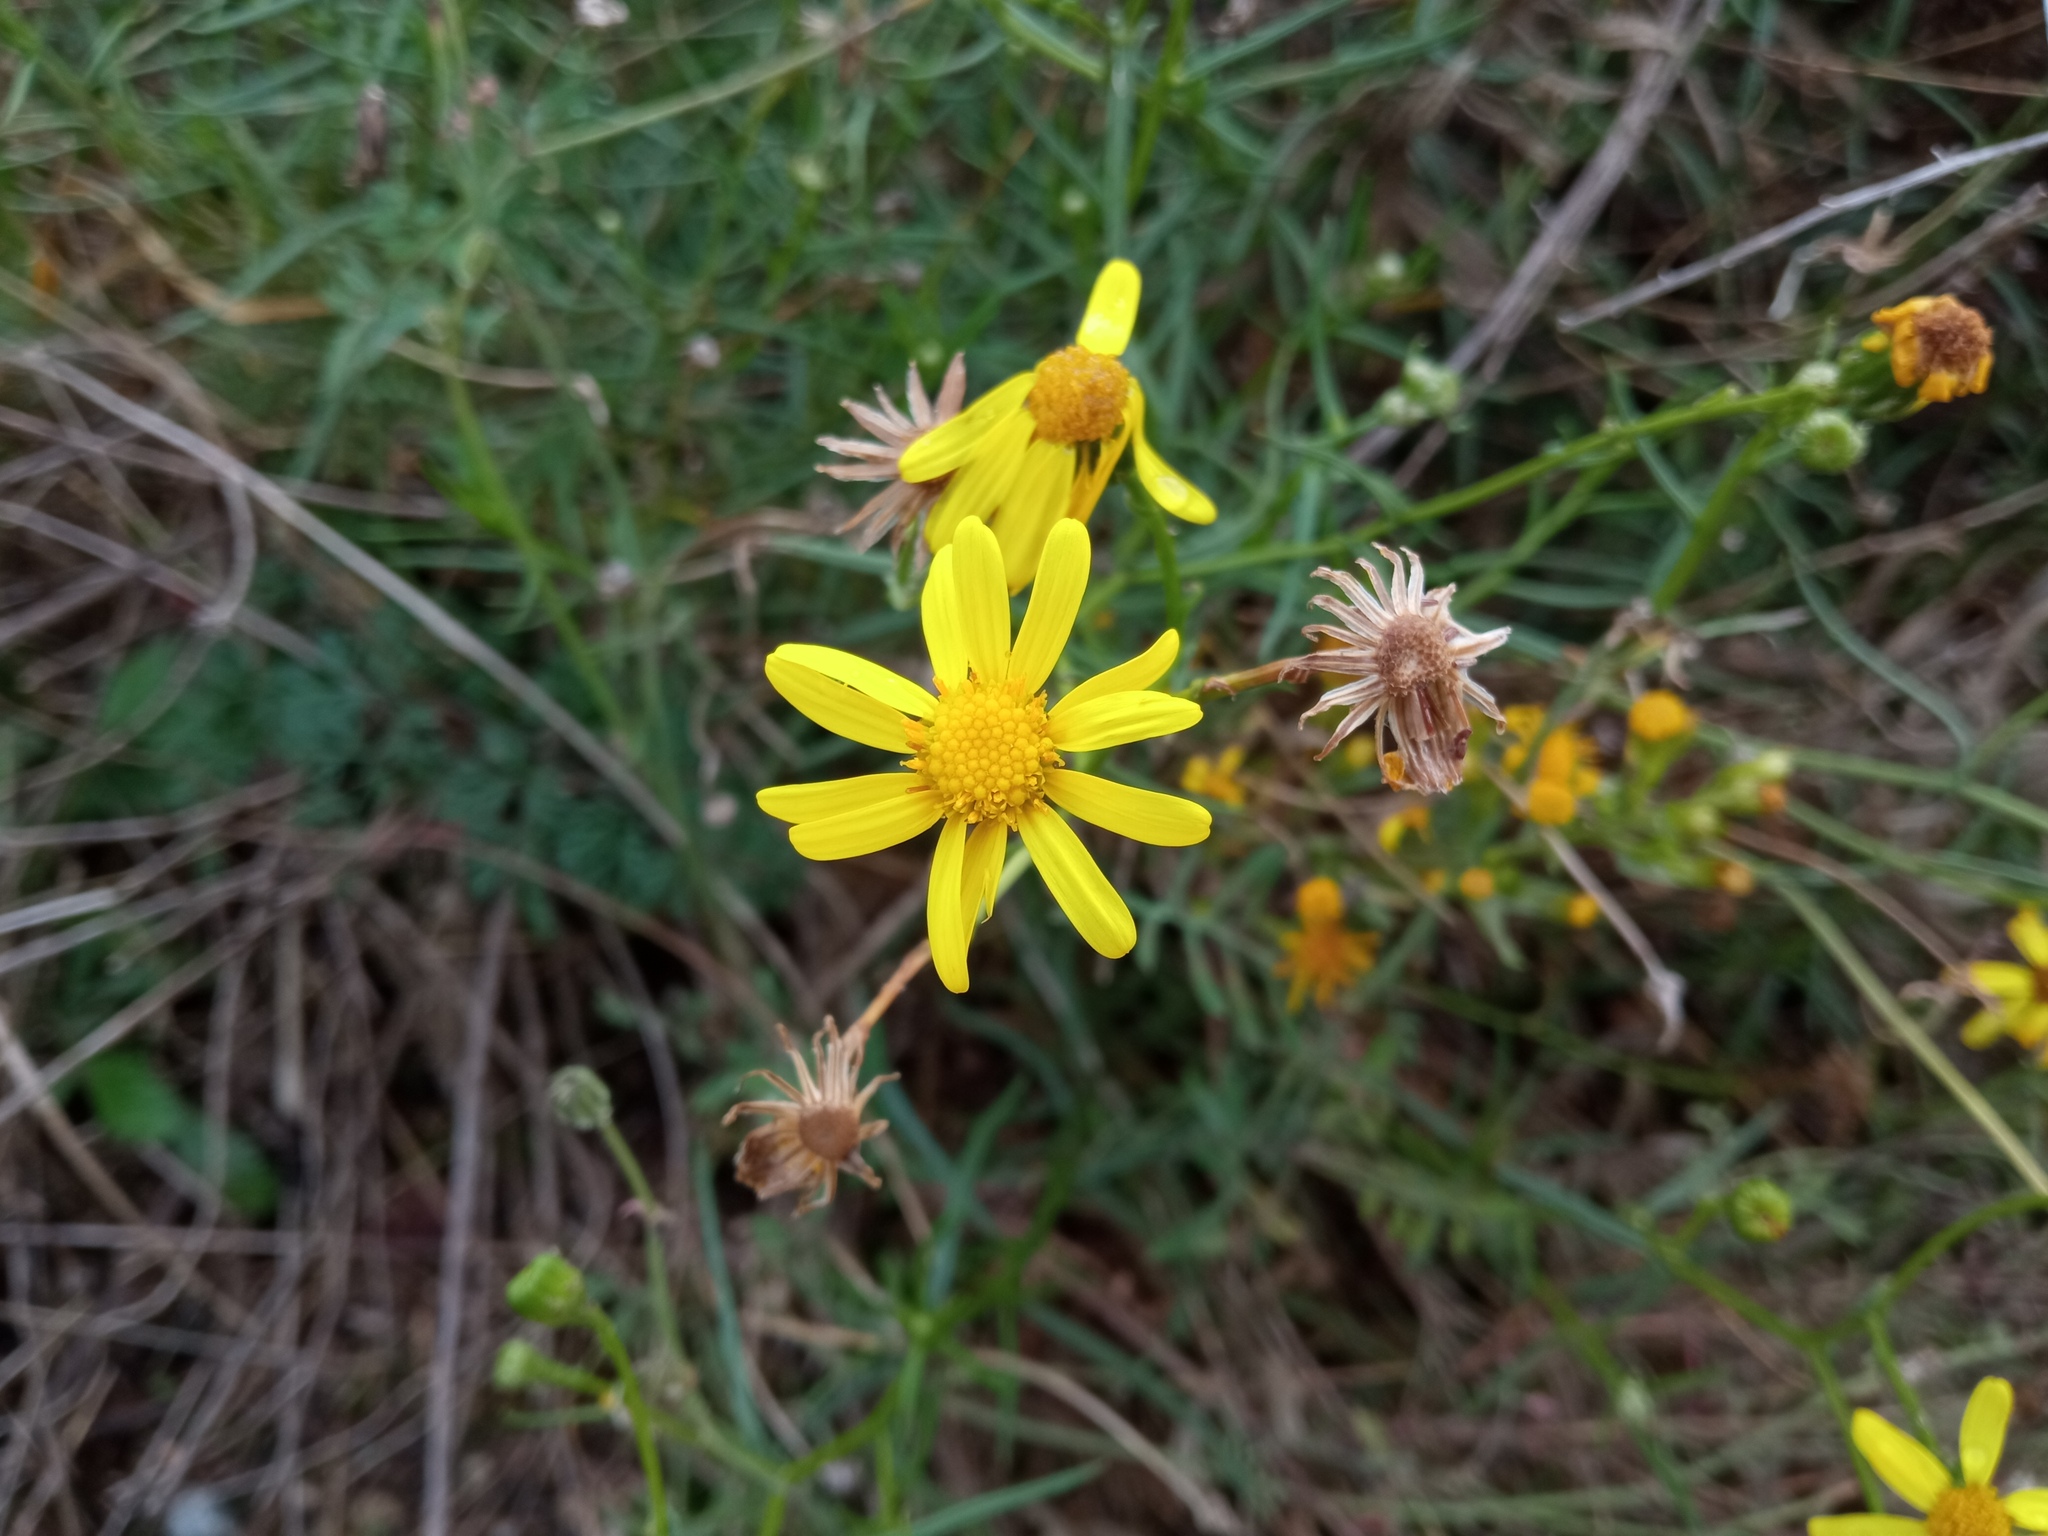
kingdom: Plantae
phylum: Tracheophyta
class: Magnoliopsida
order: Asterales
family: Asteraceae
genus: Senecio
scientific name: Senecio inaequidens
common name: Narrow-leaved ragwort
